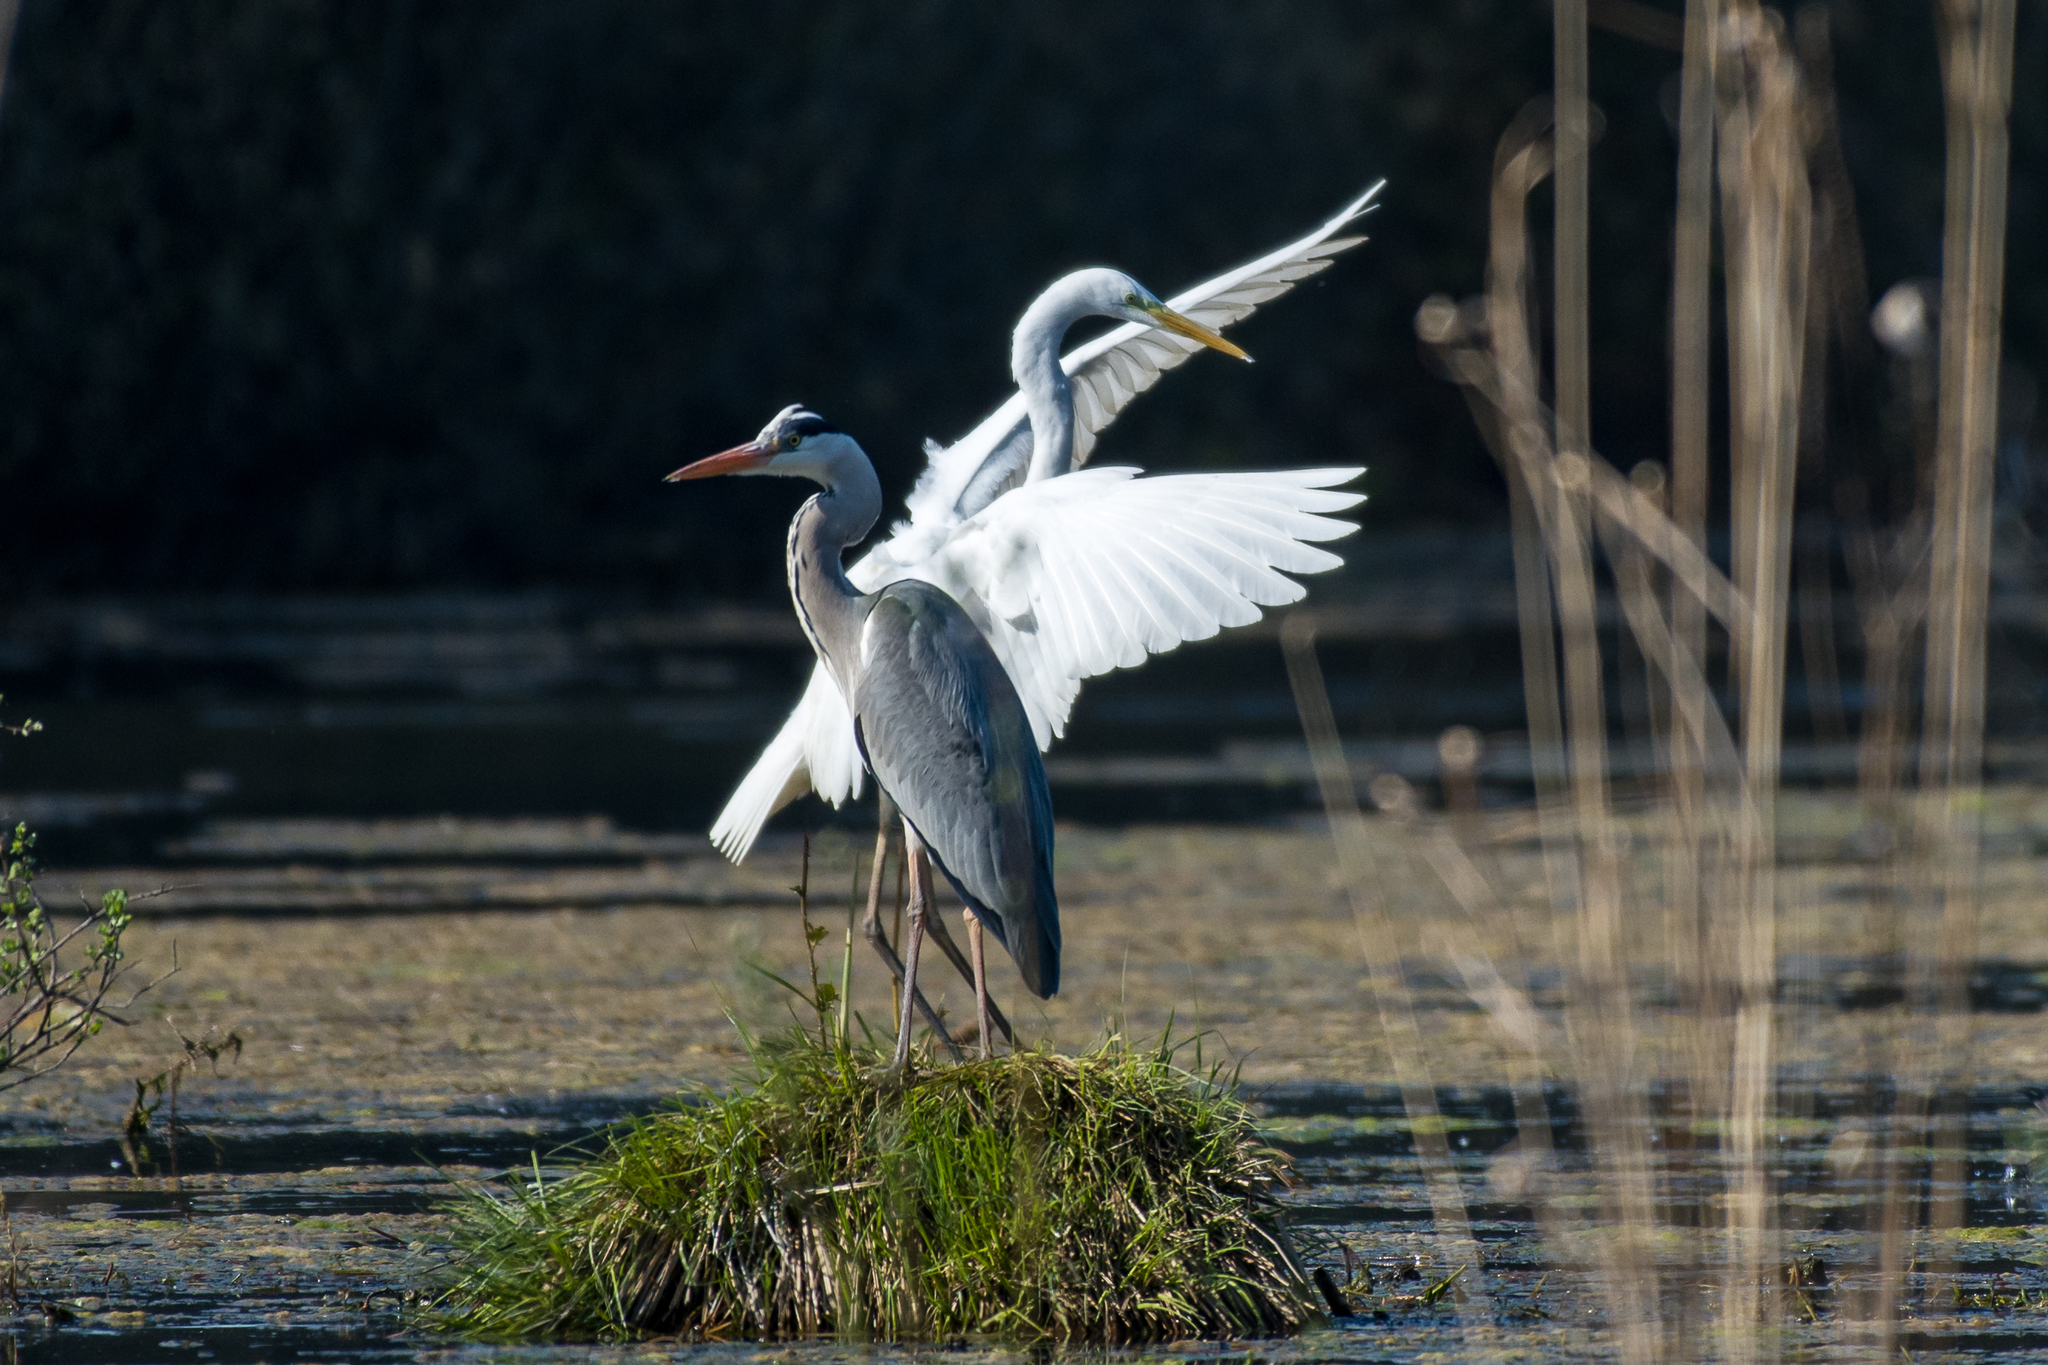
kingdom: Animalia
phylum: Chordata
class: Aves
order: Pelecaniformes
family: Ardeidae
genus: Ardea
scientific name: Ardea alba
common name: Great egret
